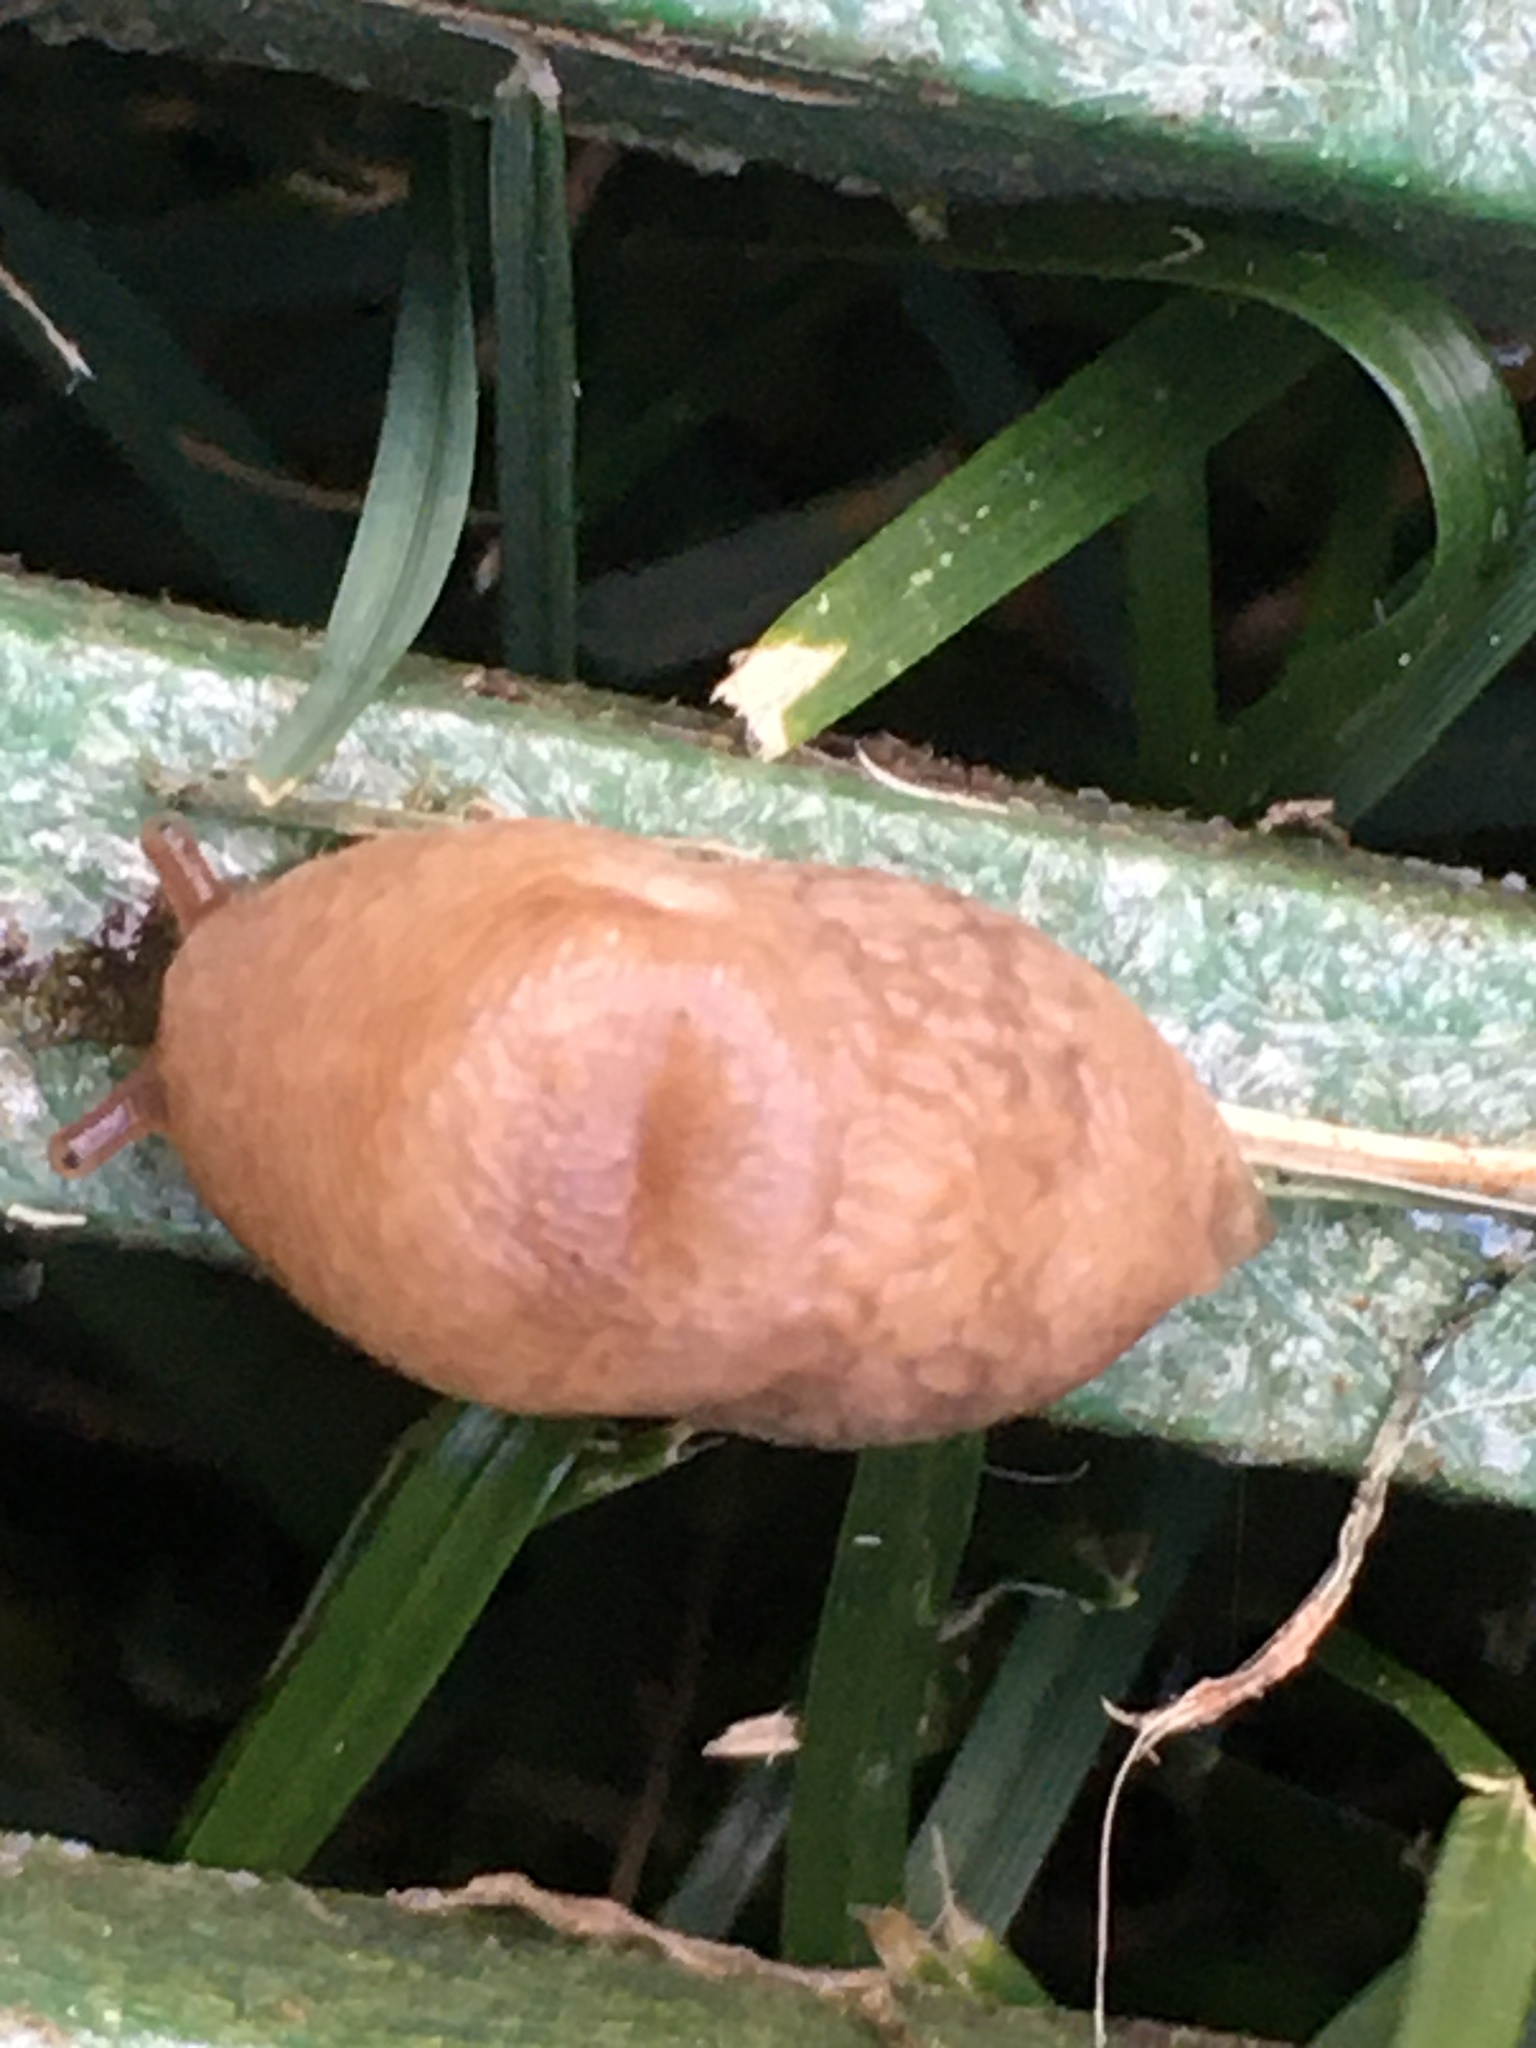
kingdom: Animalia
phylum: Mollusca
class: Gastropoda
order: Stylommatophora
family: Agriolimacidae
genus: Deroceras
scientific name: Deroceras reticulatum
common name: Gray field slug
